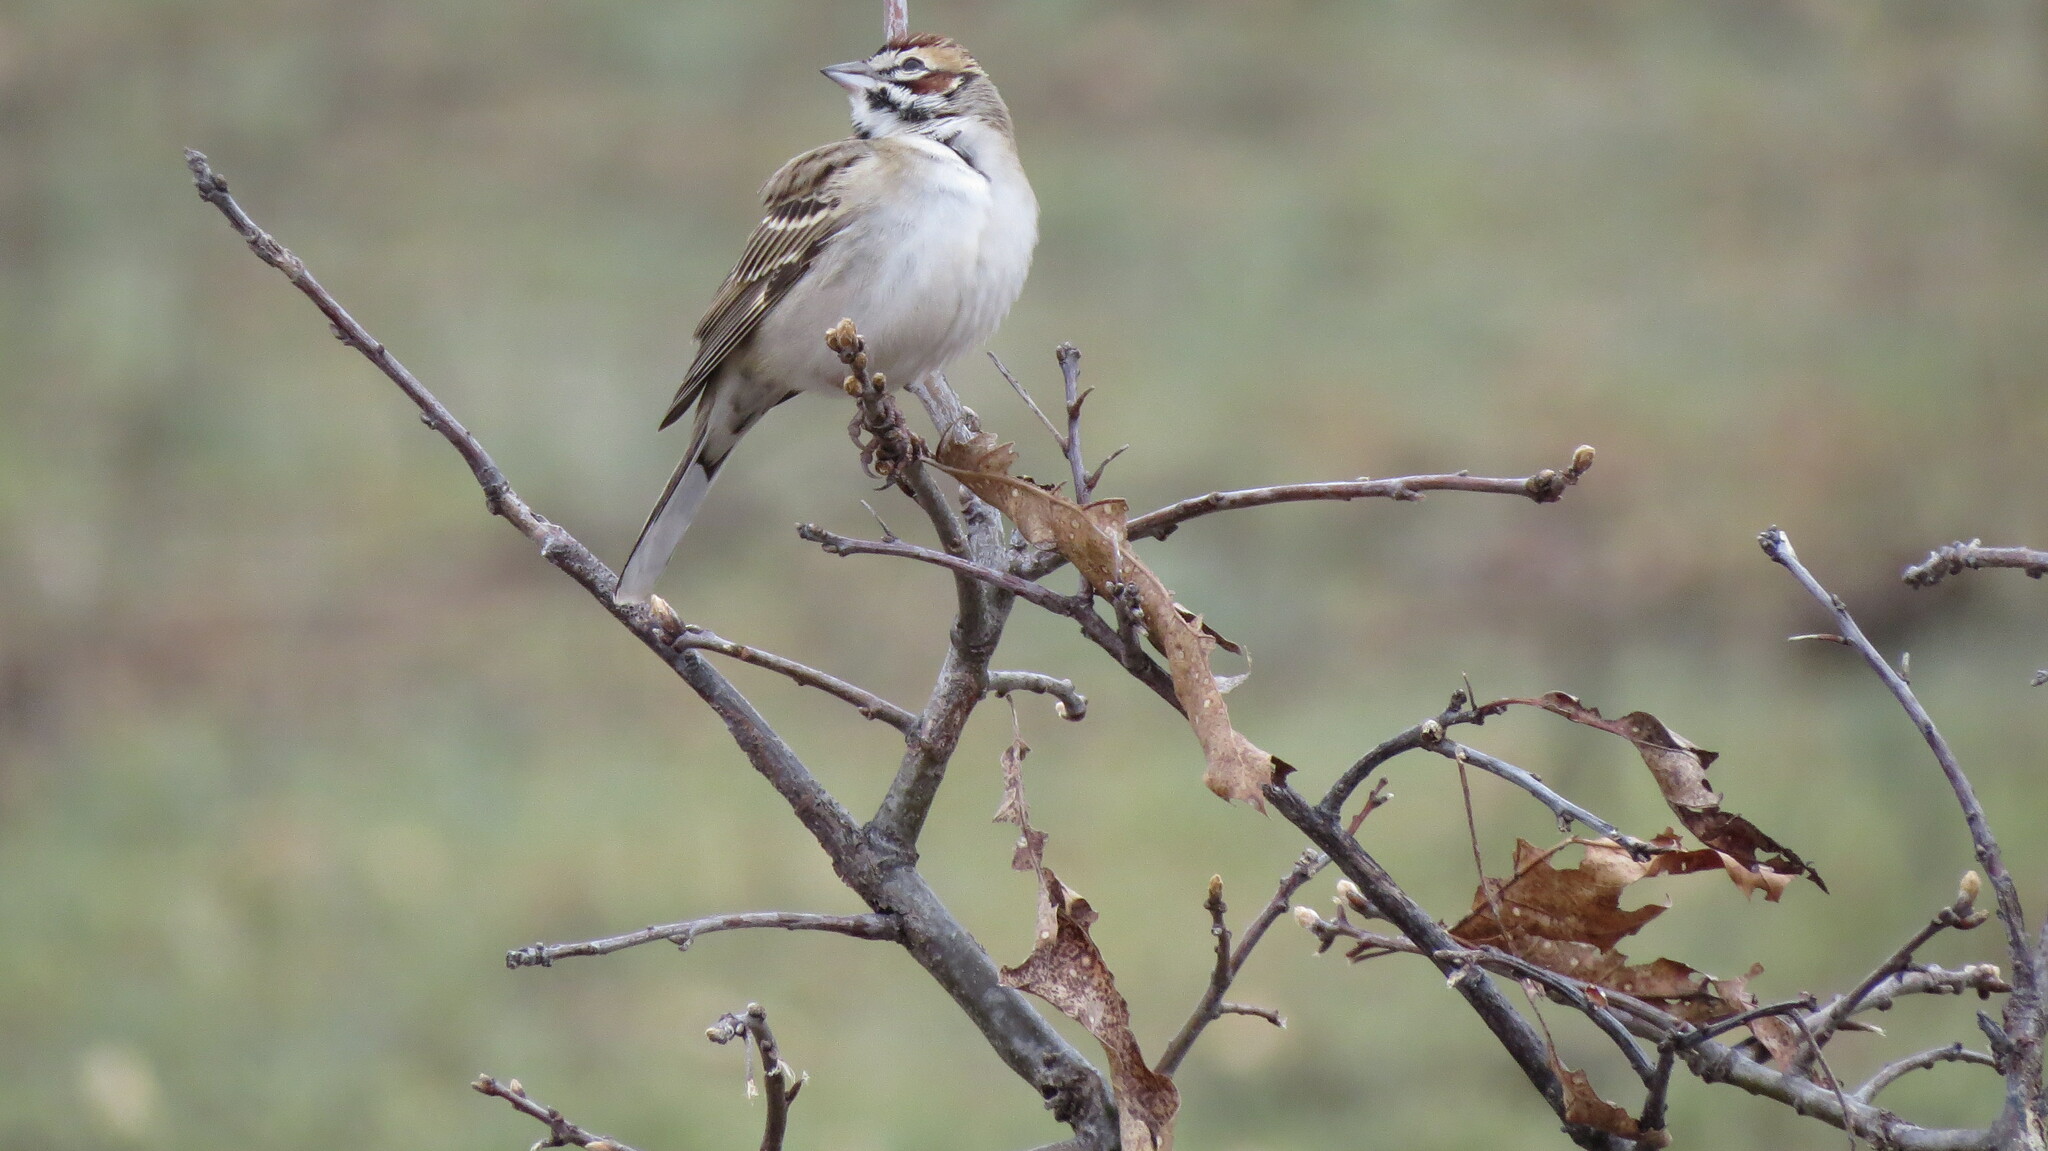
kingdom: Animalia
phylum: Chordata
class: Aves
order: Passeriformes
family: Passerellidae
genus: Chondestes
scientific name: Chondestes grammacus
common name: Lark sparrow
